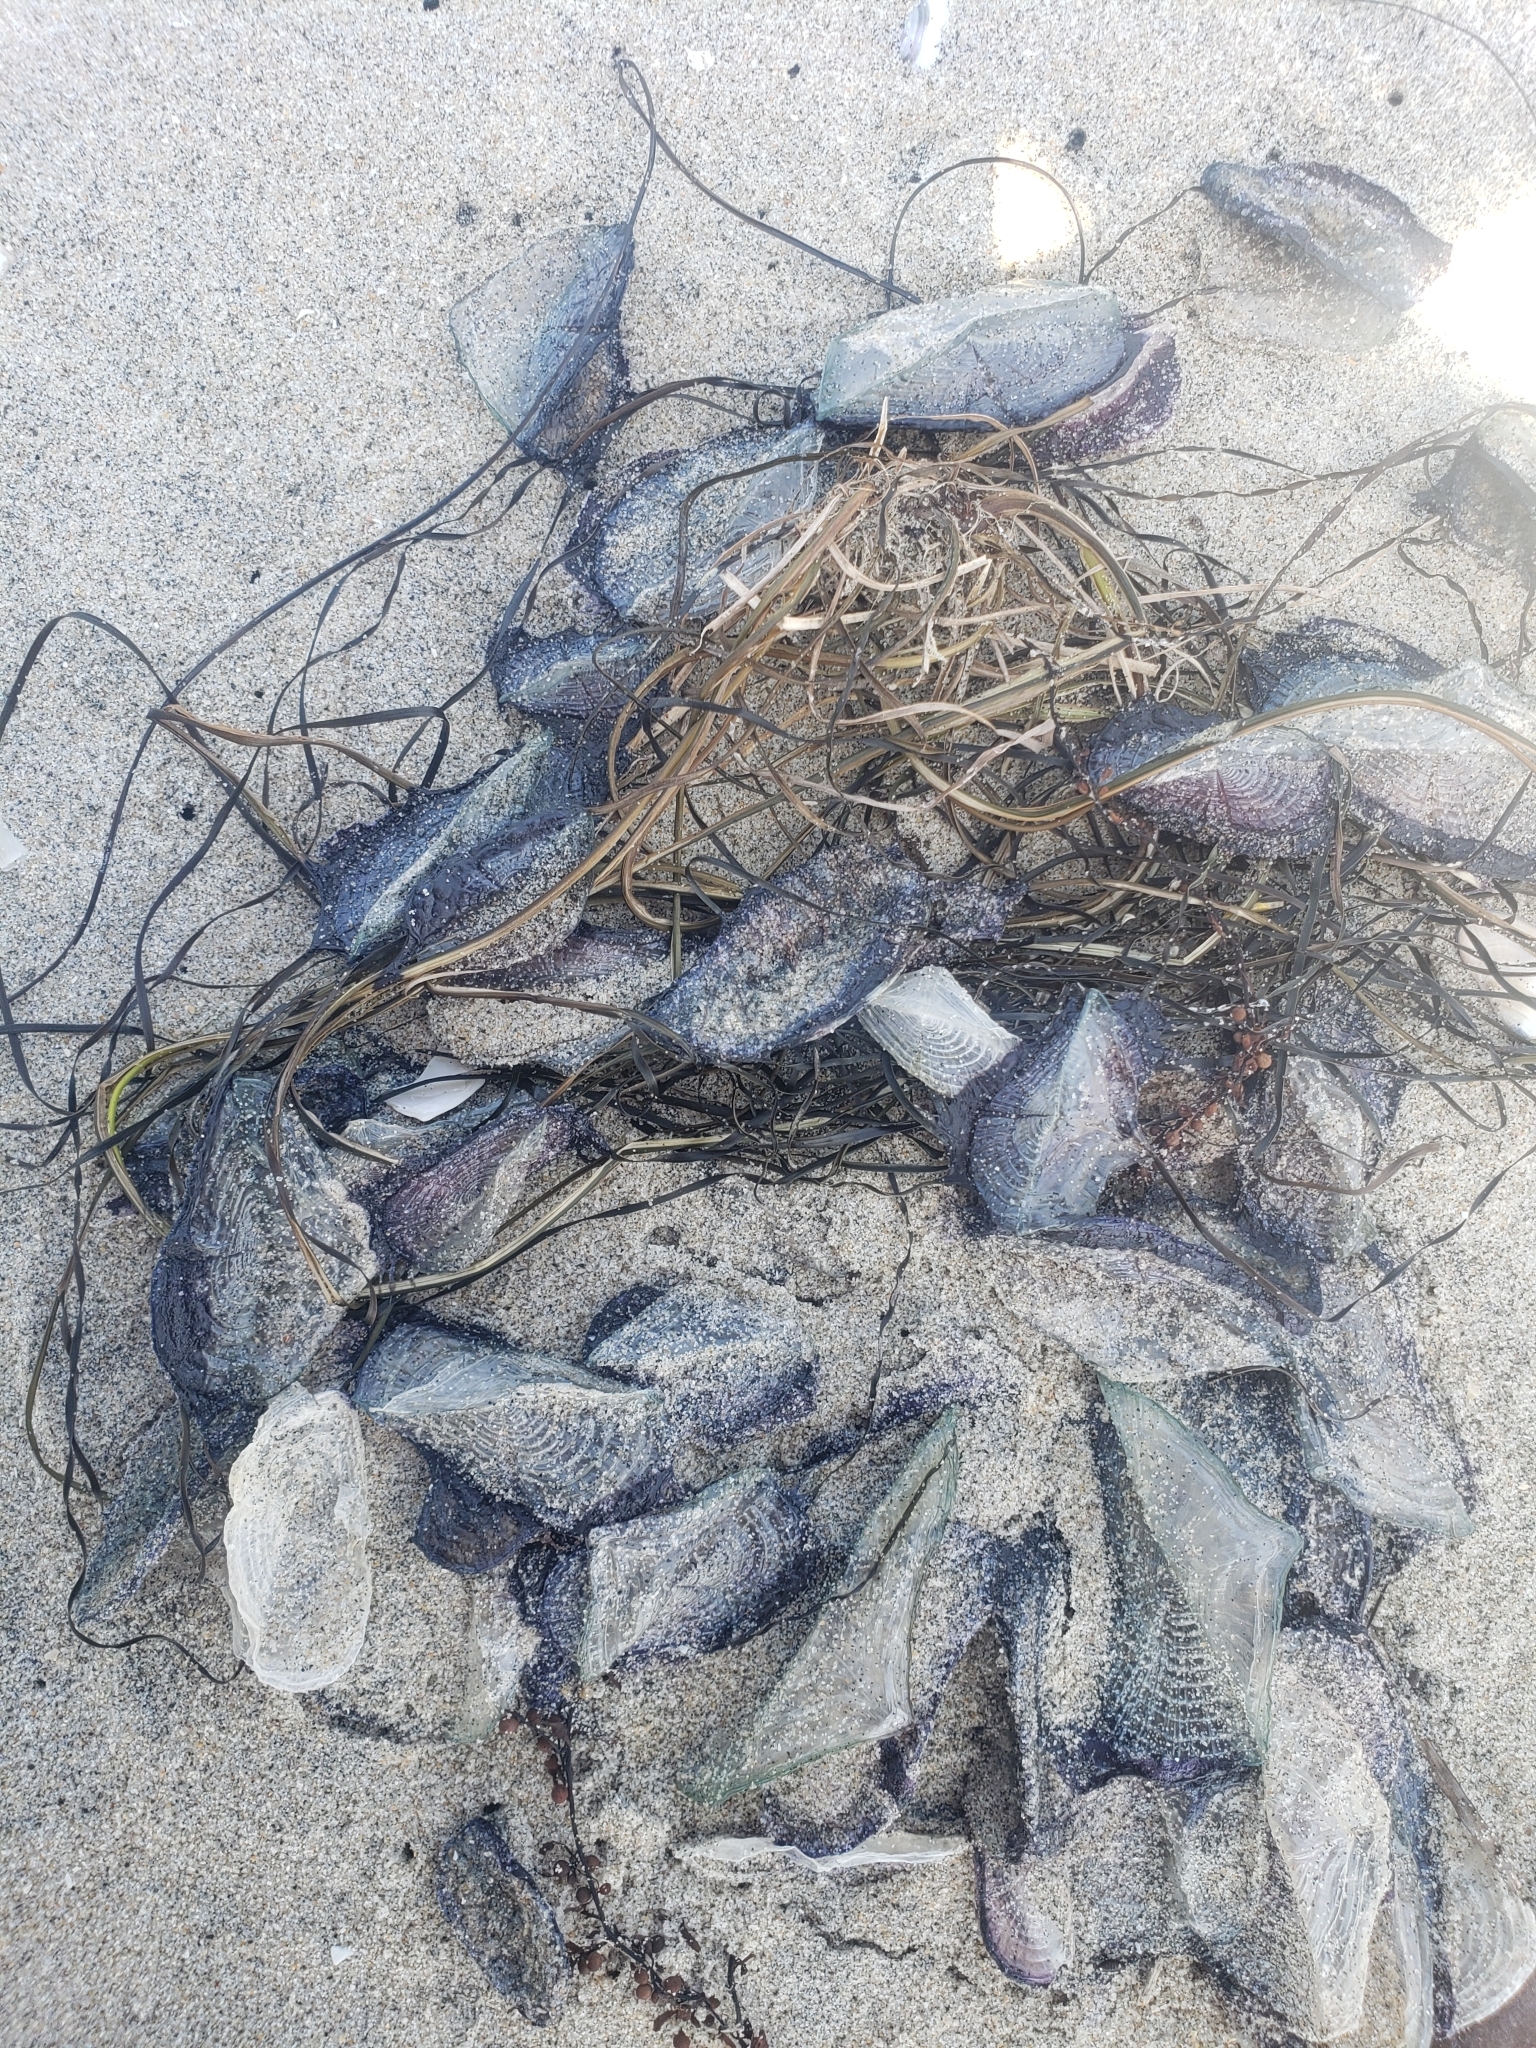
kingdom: Animalia
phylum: Cnidaria
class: Hydrozoa
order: Anthoathecata
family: Porpitidae
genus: Velella
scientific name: Velella velella
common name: By-the-wind-sailor
